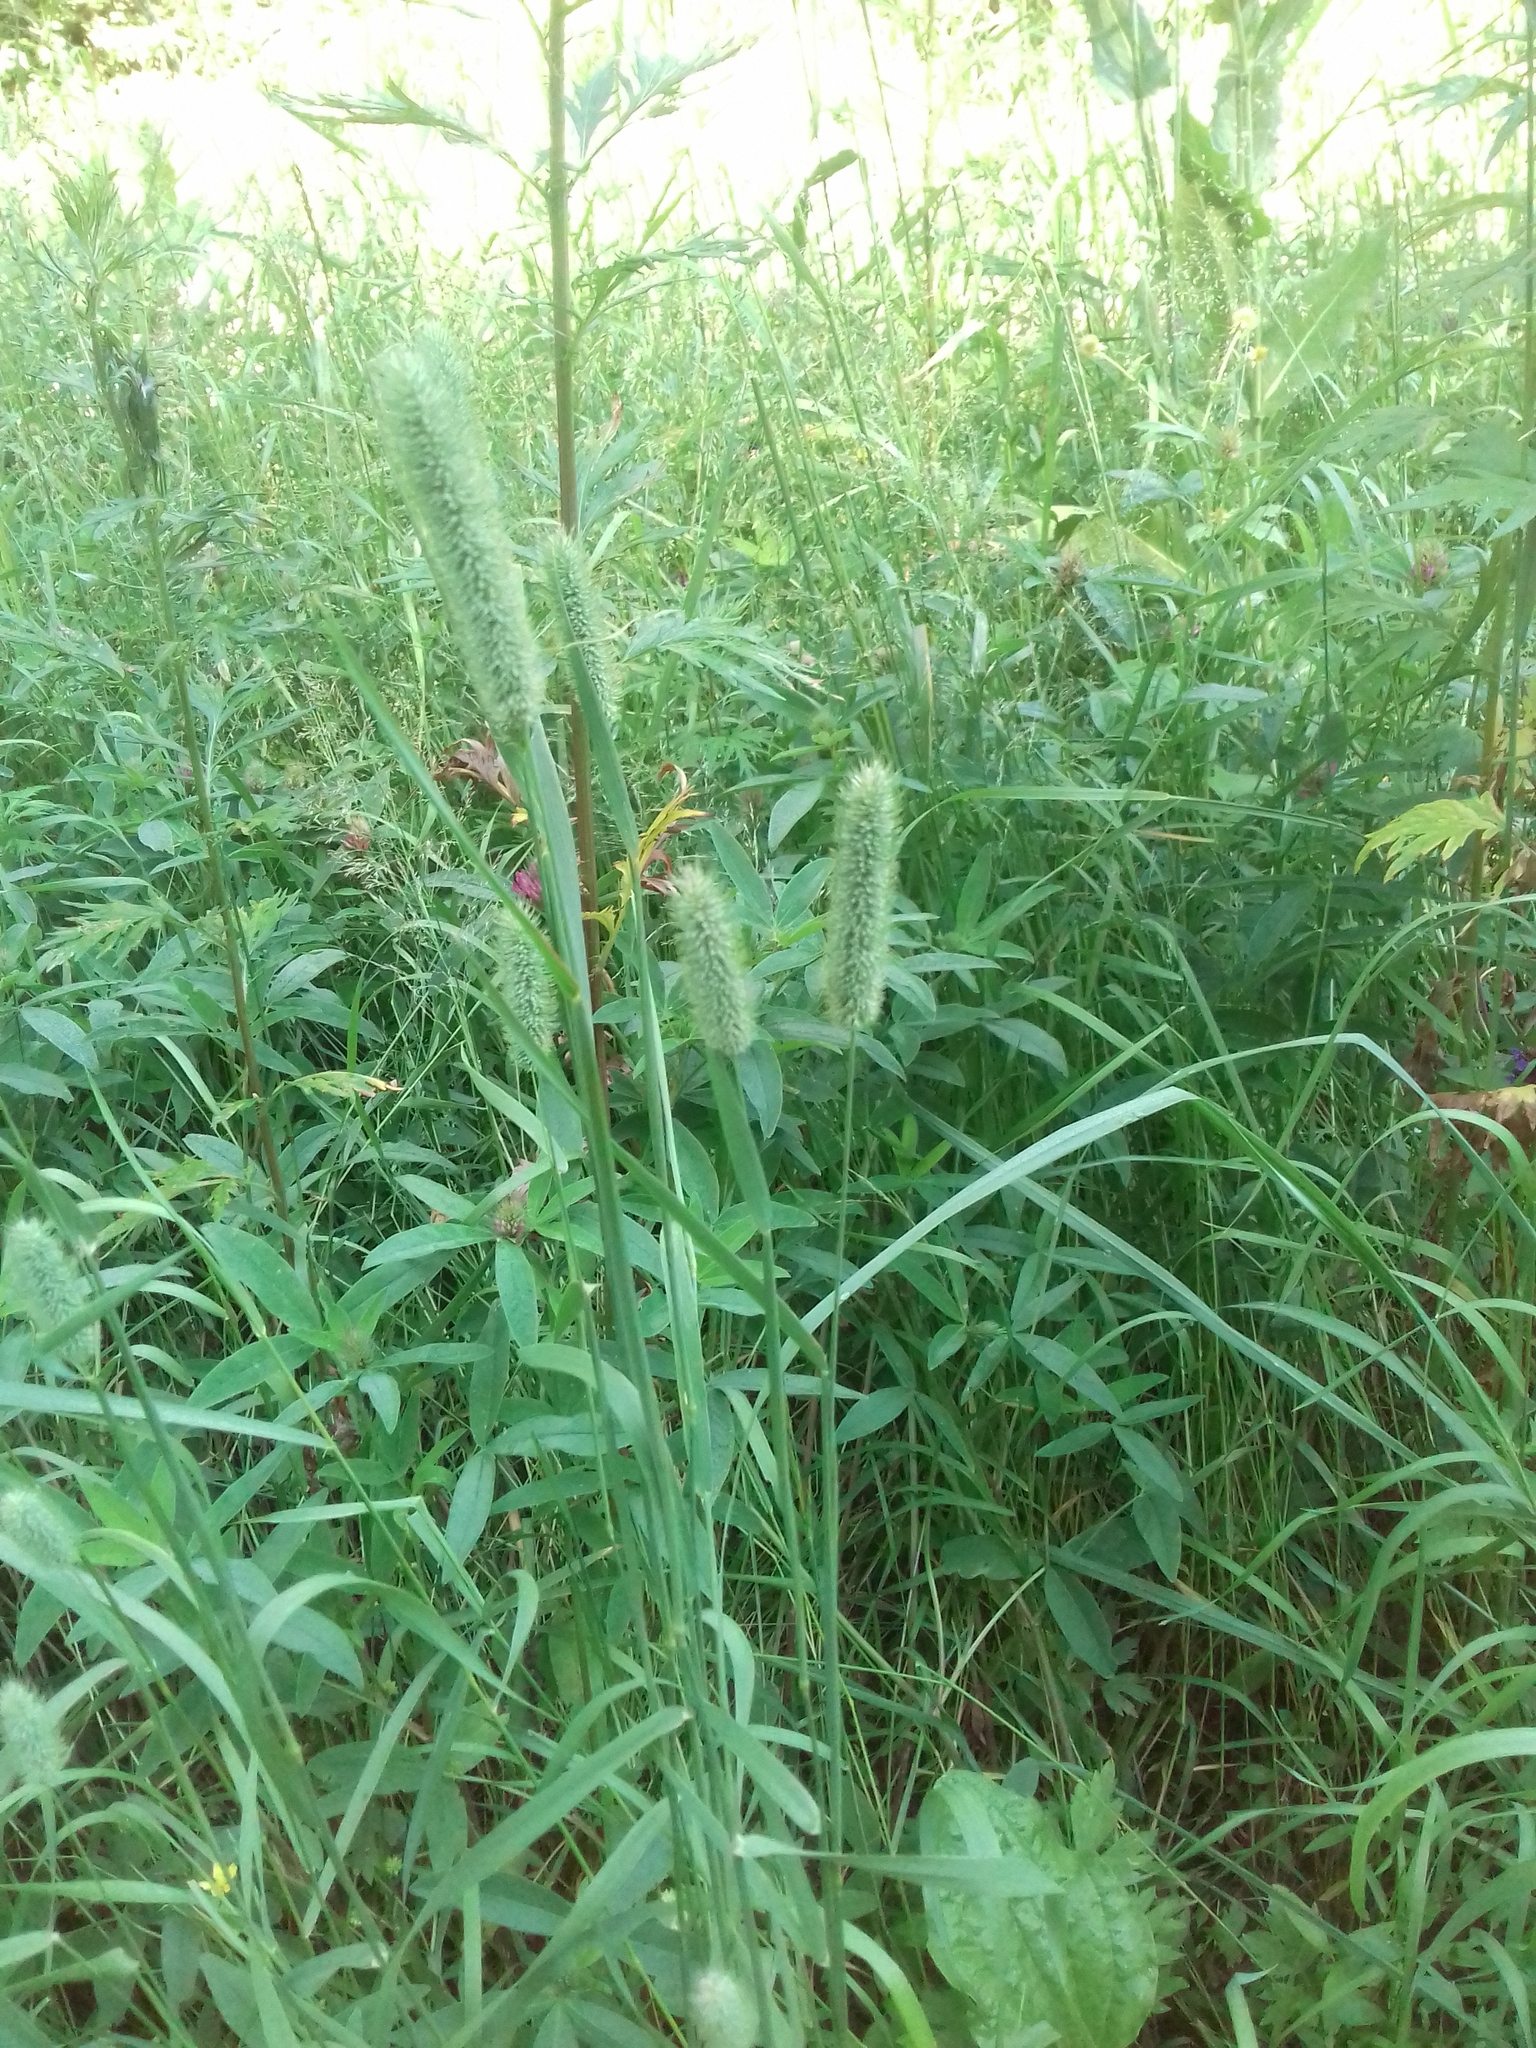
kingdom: Plantae
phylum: Tracheophyta
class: Liliopsida
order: Poales
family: Poaceae
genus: Phleum
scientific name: Phleum pratense
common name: Timothy grass
